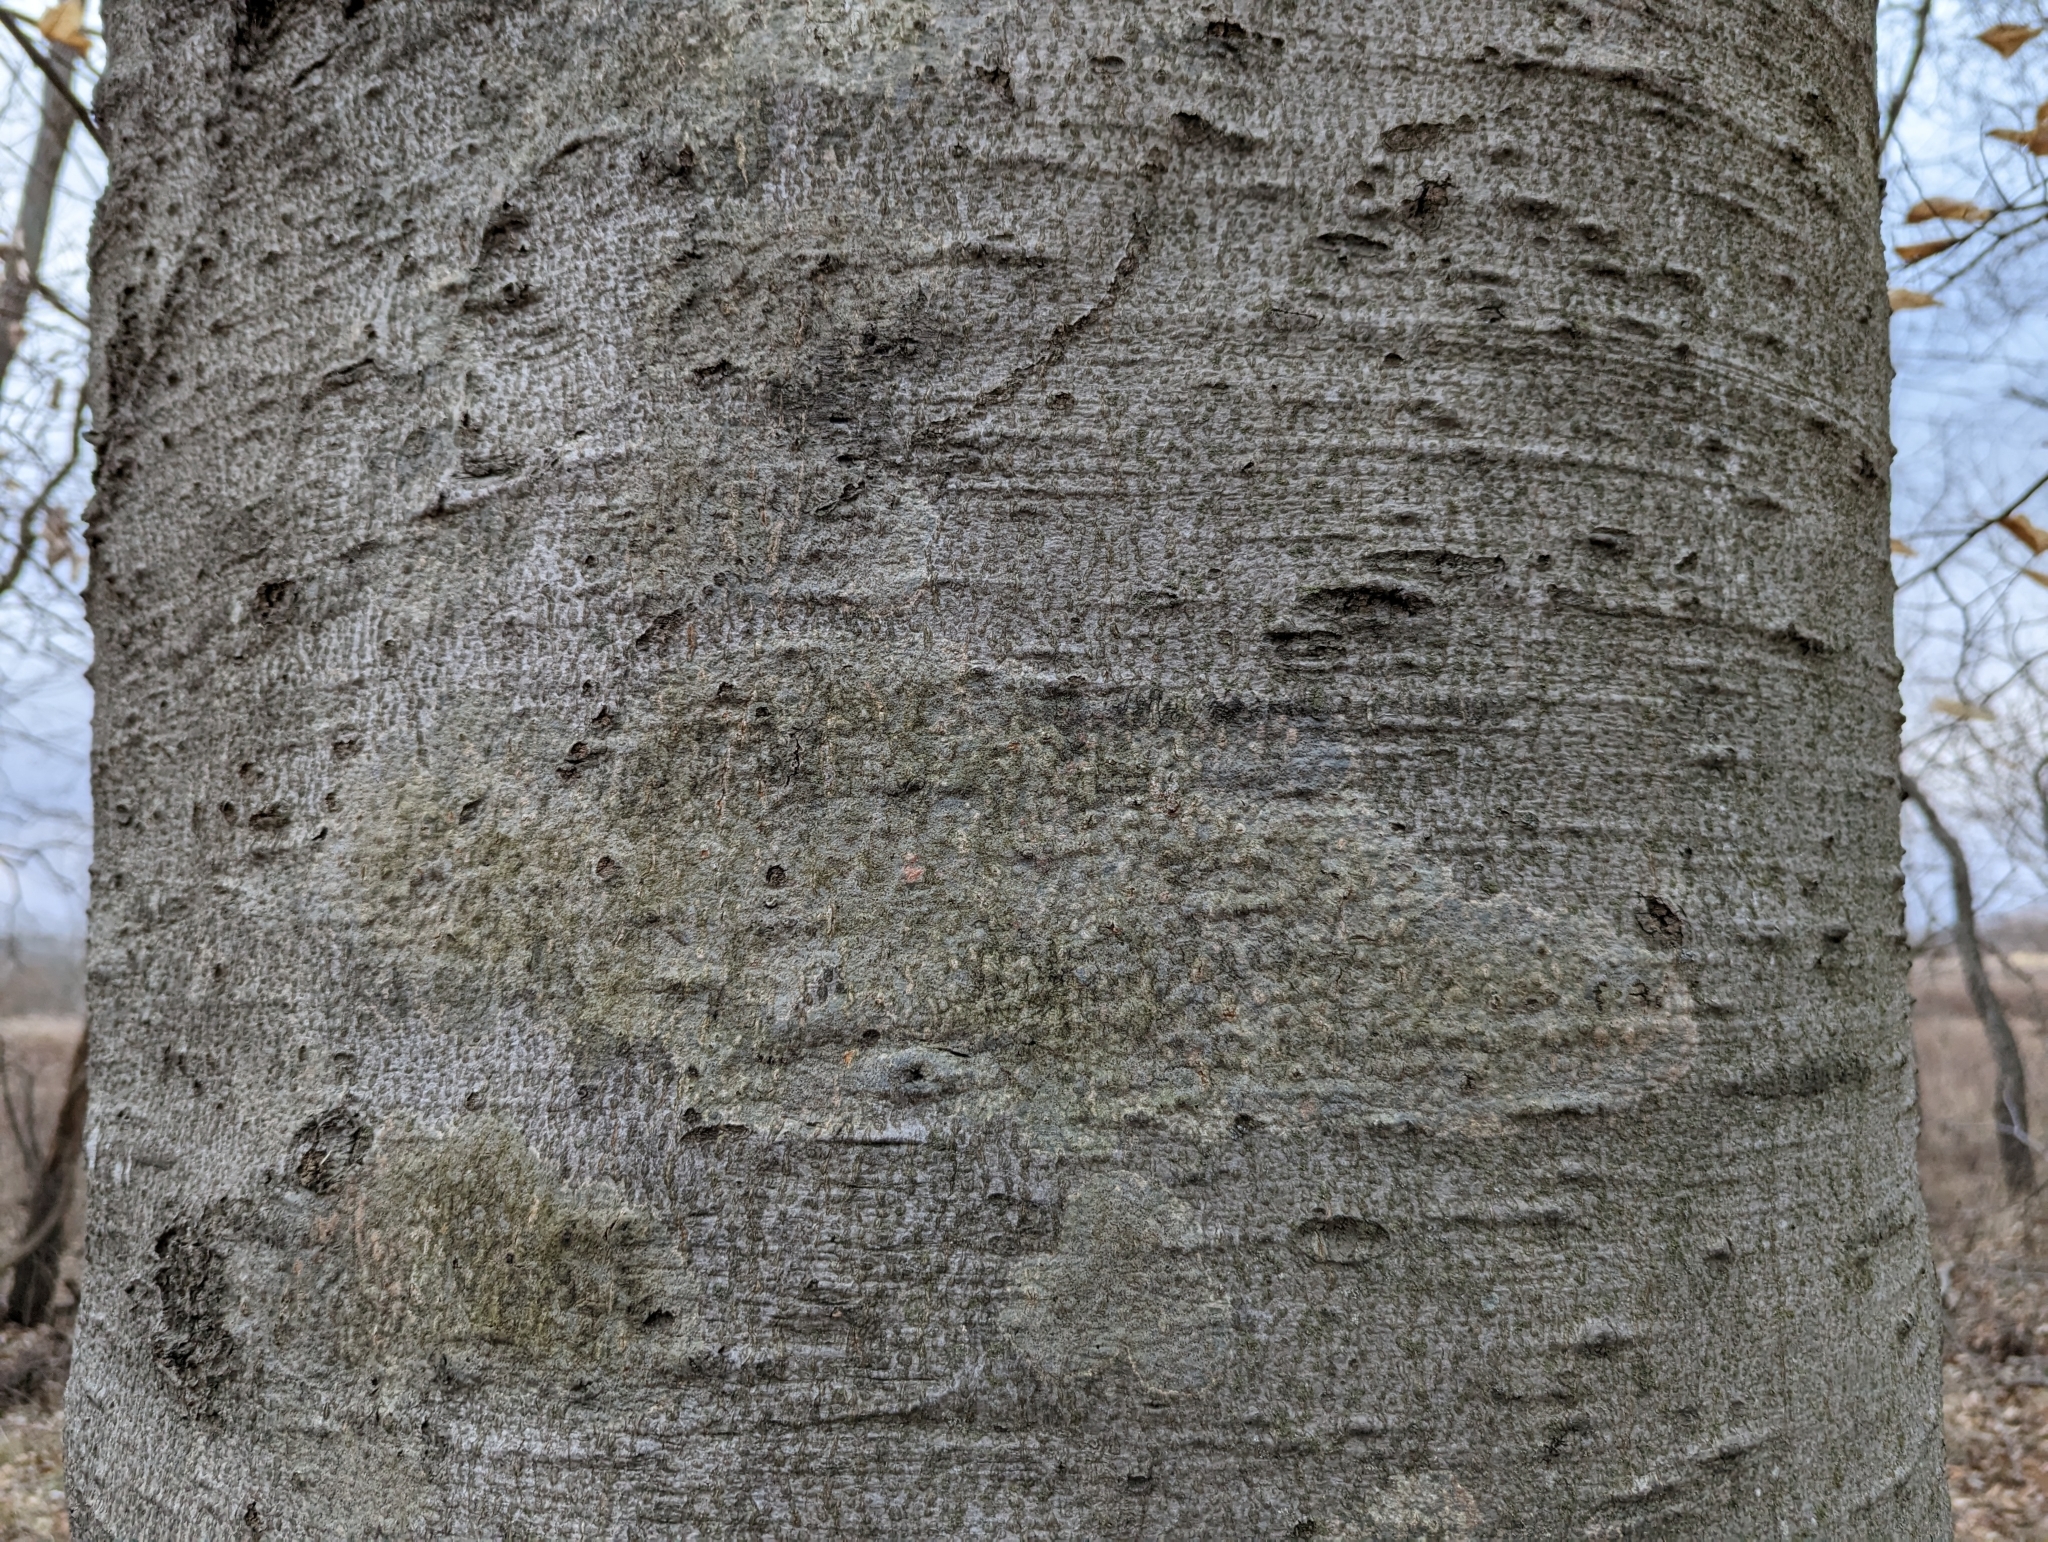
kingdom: Plantae
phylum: Tracheophyta
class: Magnoliopsida
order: Fagales
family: Fagaceae
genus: Fagus
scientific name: Fagus grandifolia
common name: American beech
